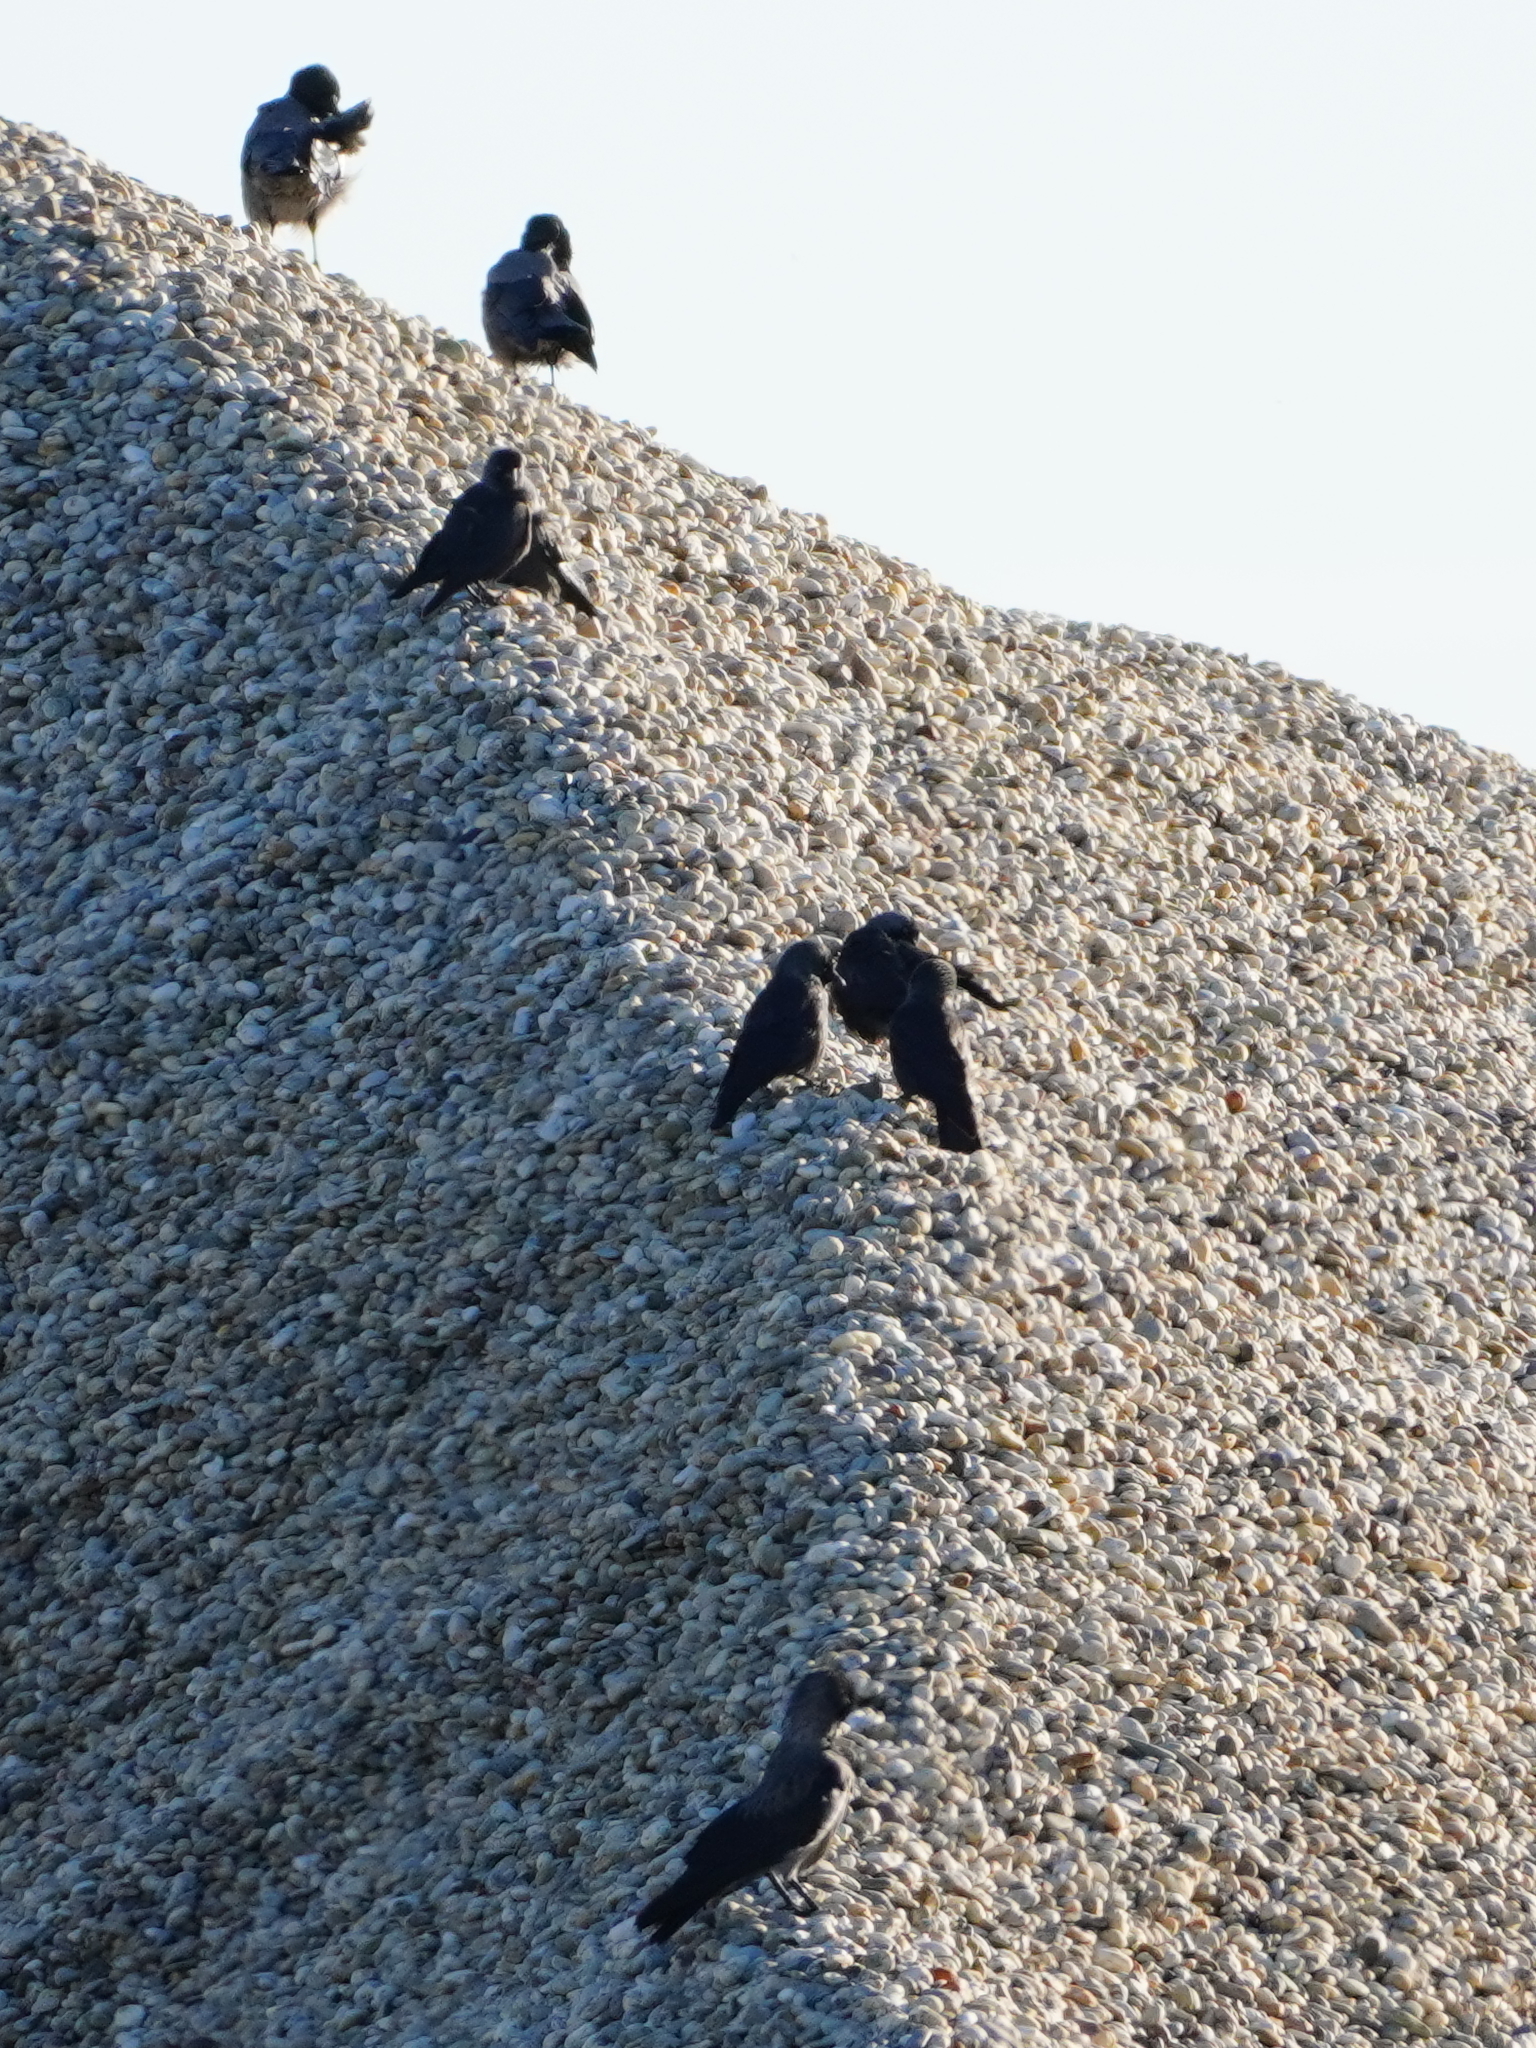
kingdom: Animalia
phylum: Chordata
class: Aves
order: Passeriformes
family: Corvidae
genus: Coloeus
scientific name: Coloeus monedula
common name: Western jackdaw
